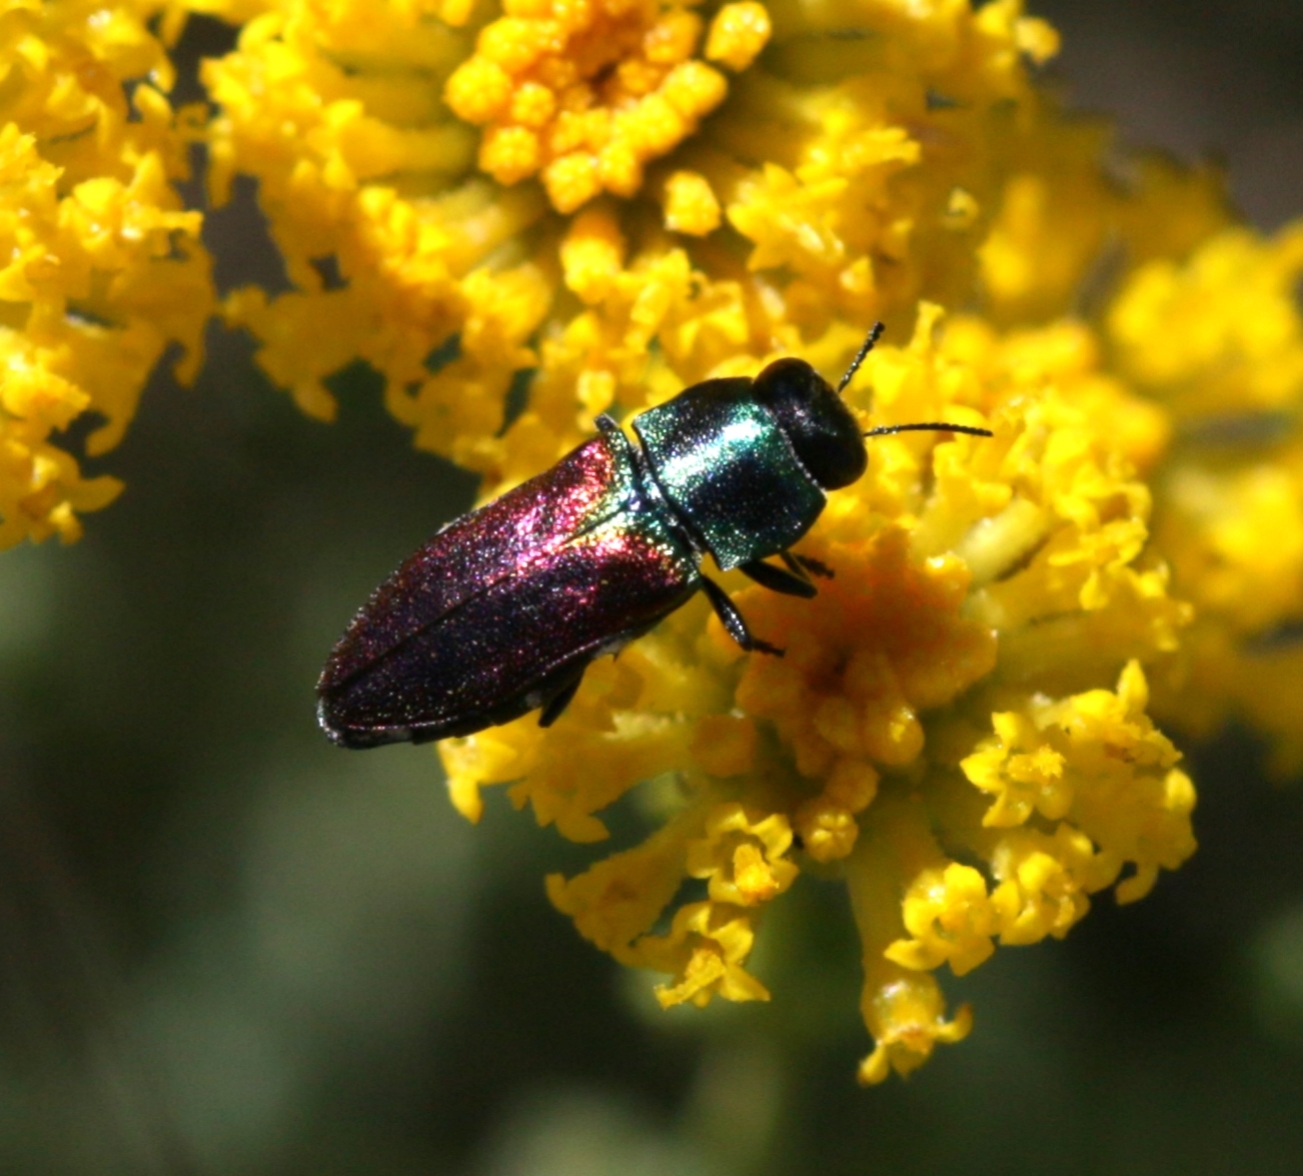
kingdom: Animalia
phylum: Arthropoda
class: Insecta
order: Coleoptera
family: Buprestidae
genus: Anthaxia
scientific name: Anthaxia ignipennis
